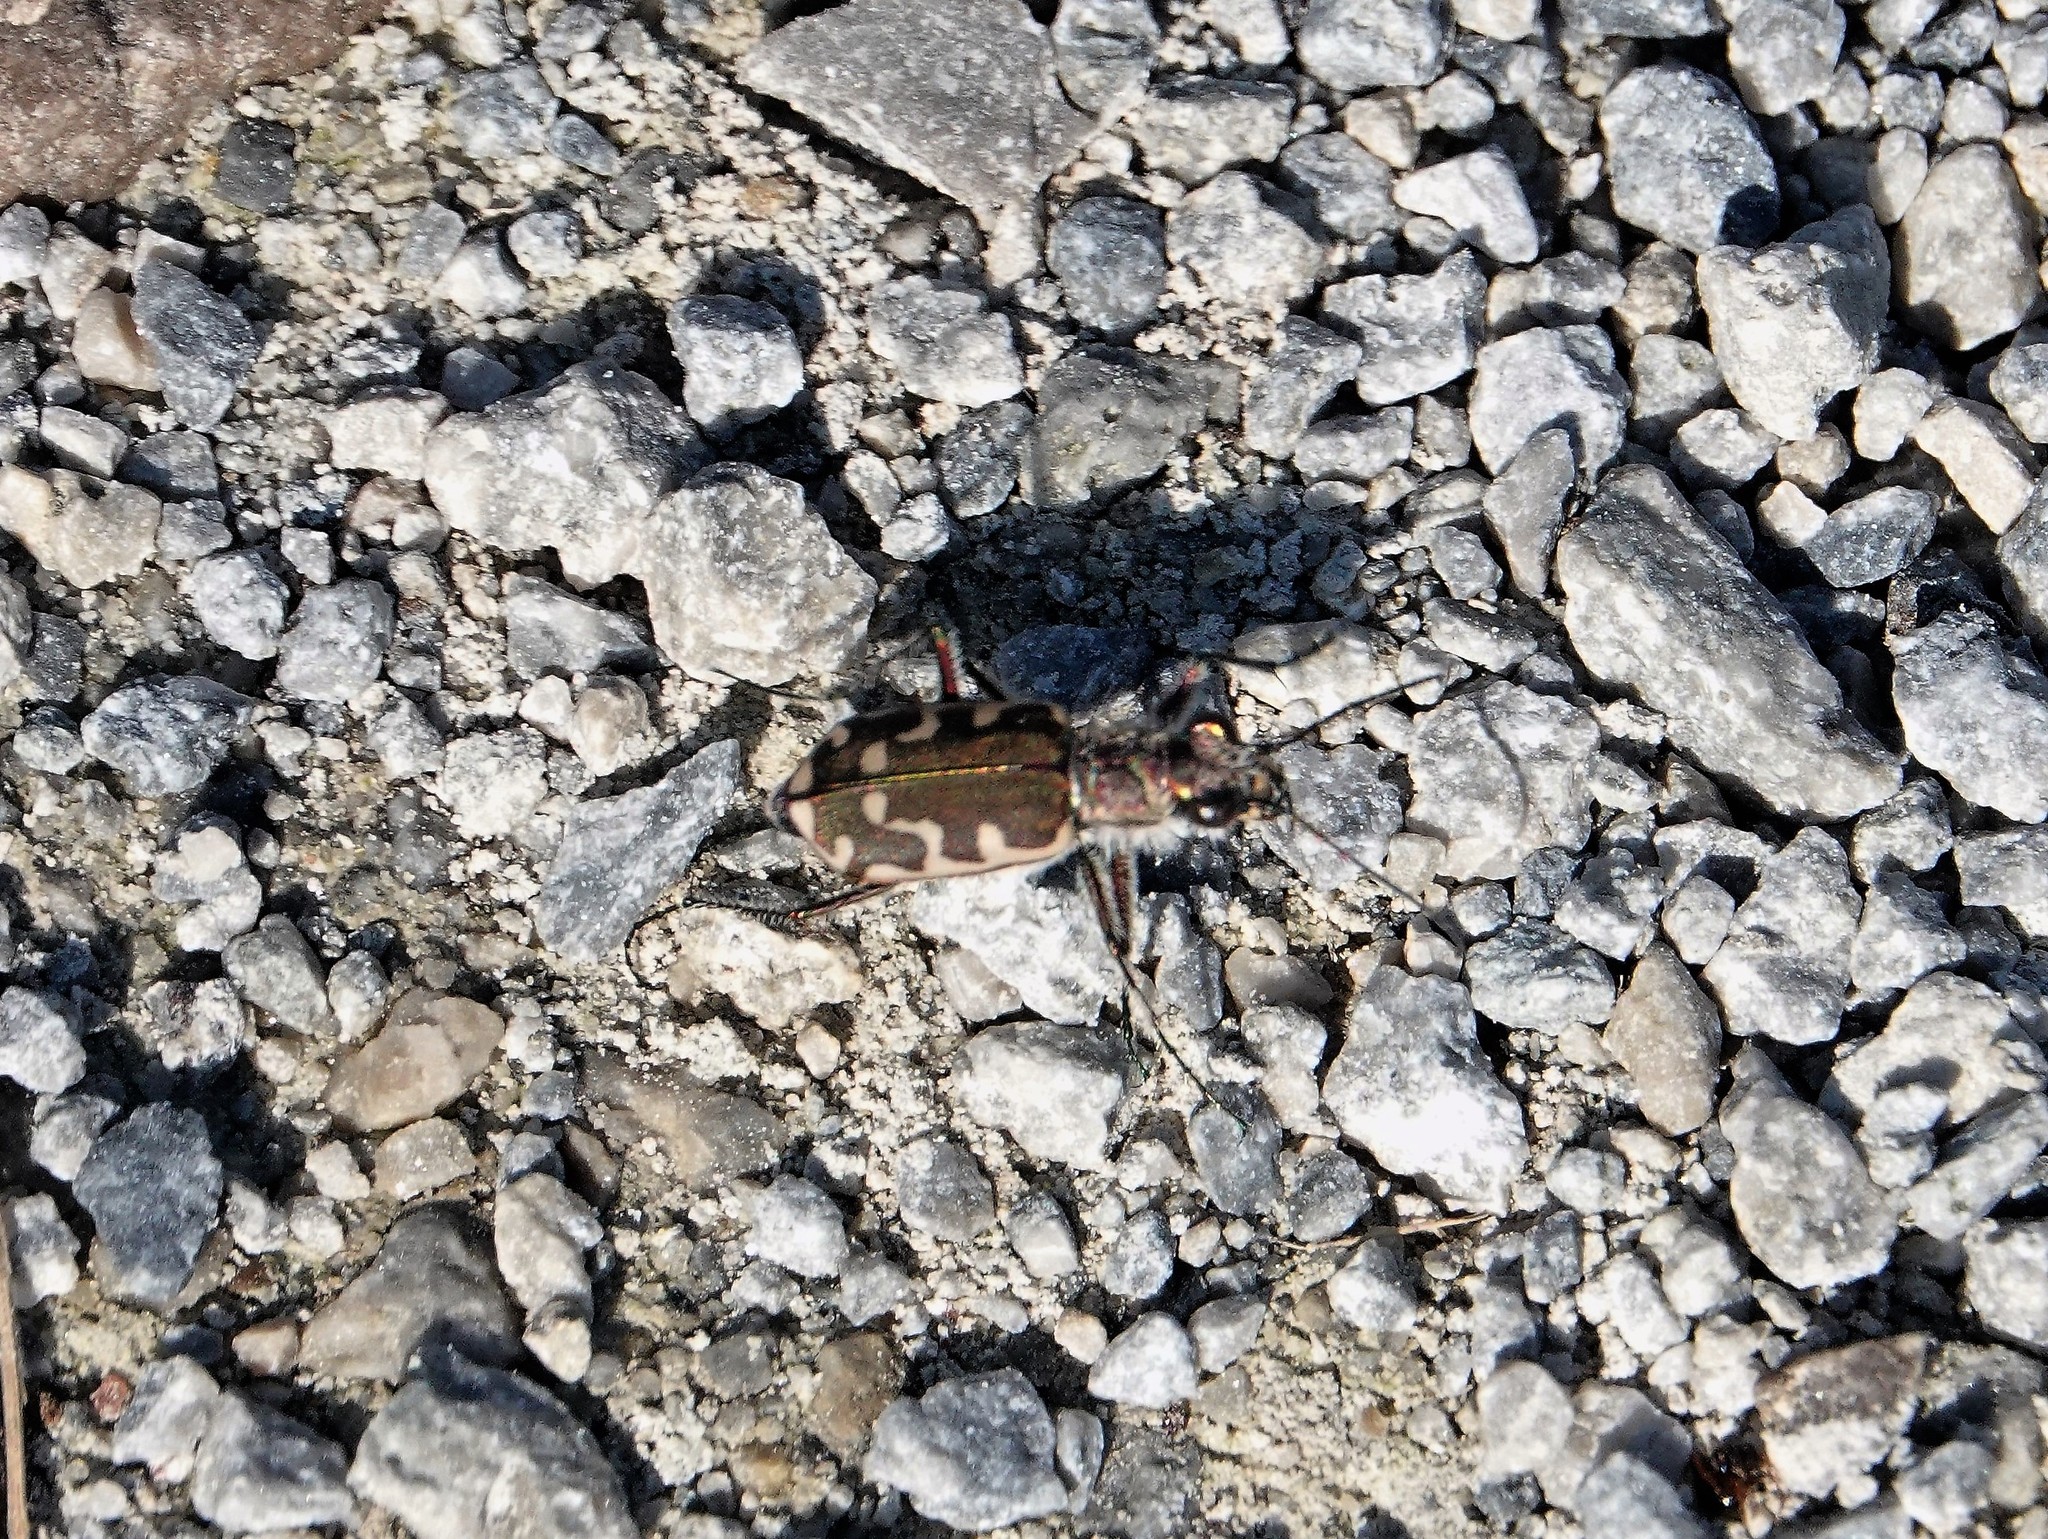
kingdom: Animalia
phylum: Arthropoda
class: Insecta
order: Coleoptera
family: Carabidae
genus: Cicindela
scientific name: Cicindela repanda
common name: Bronzed tiger beetle
